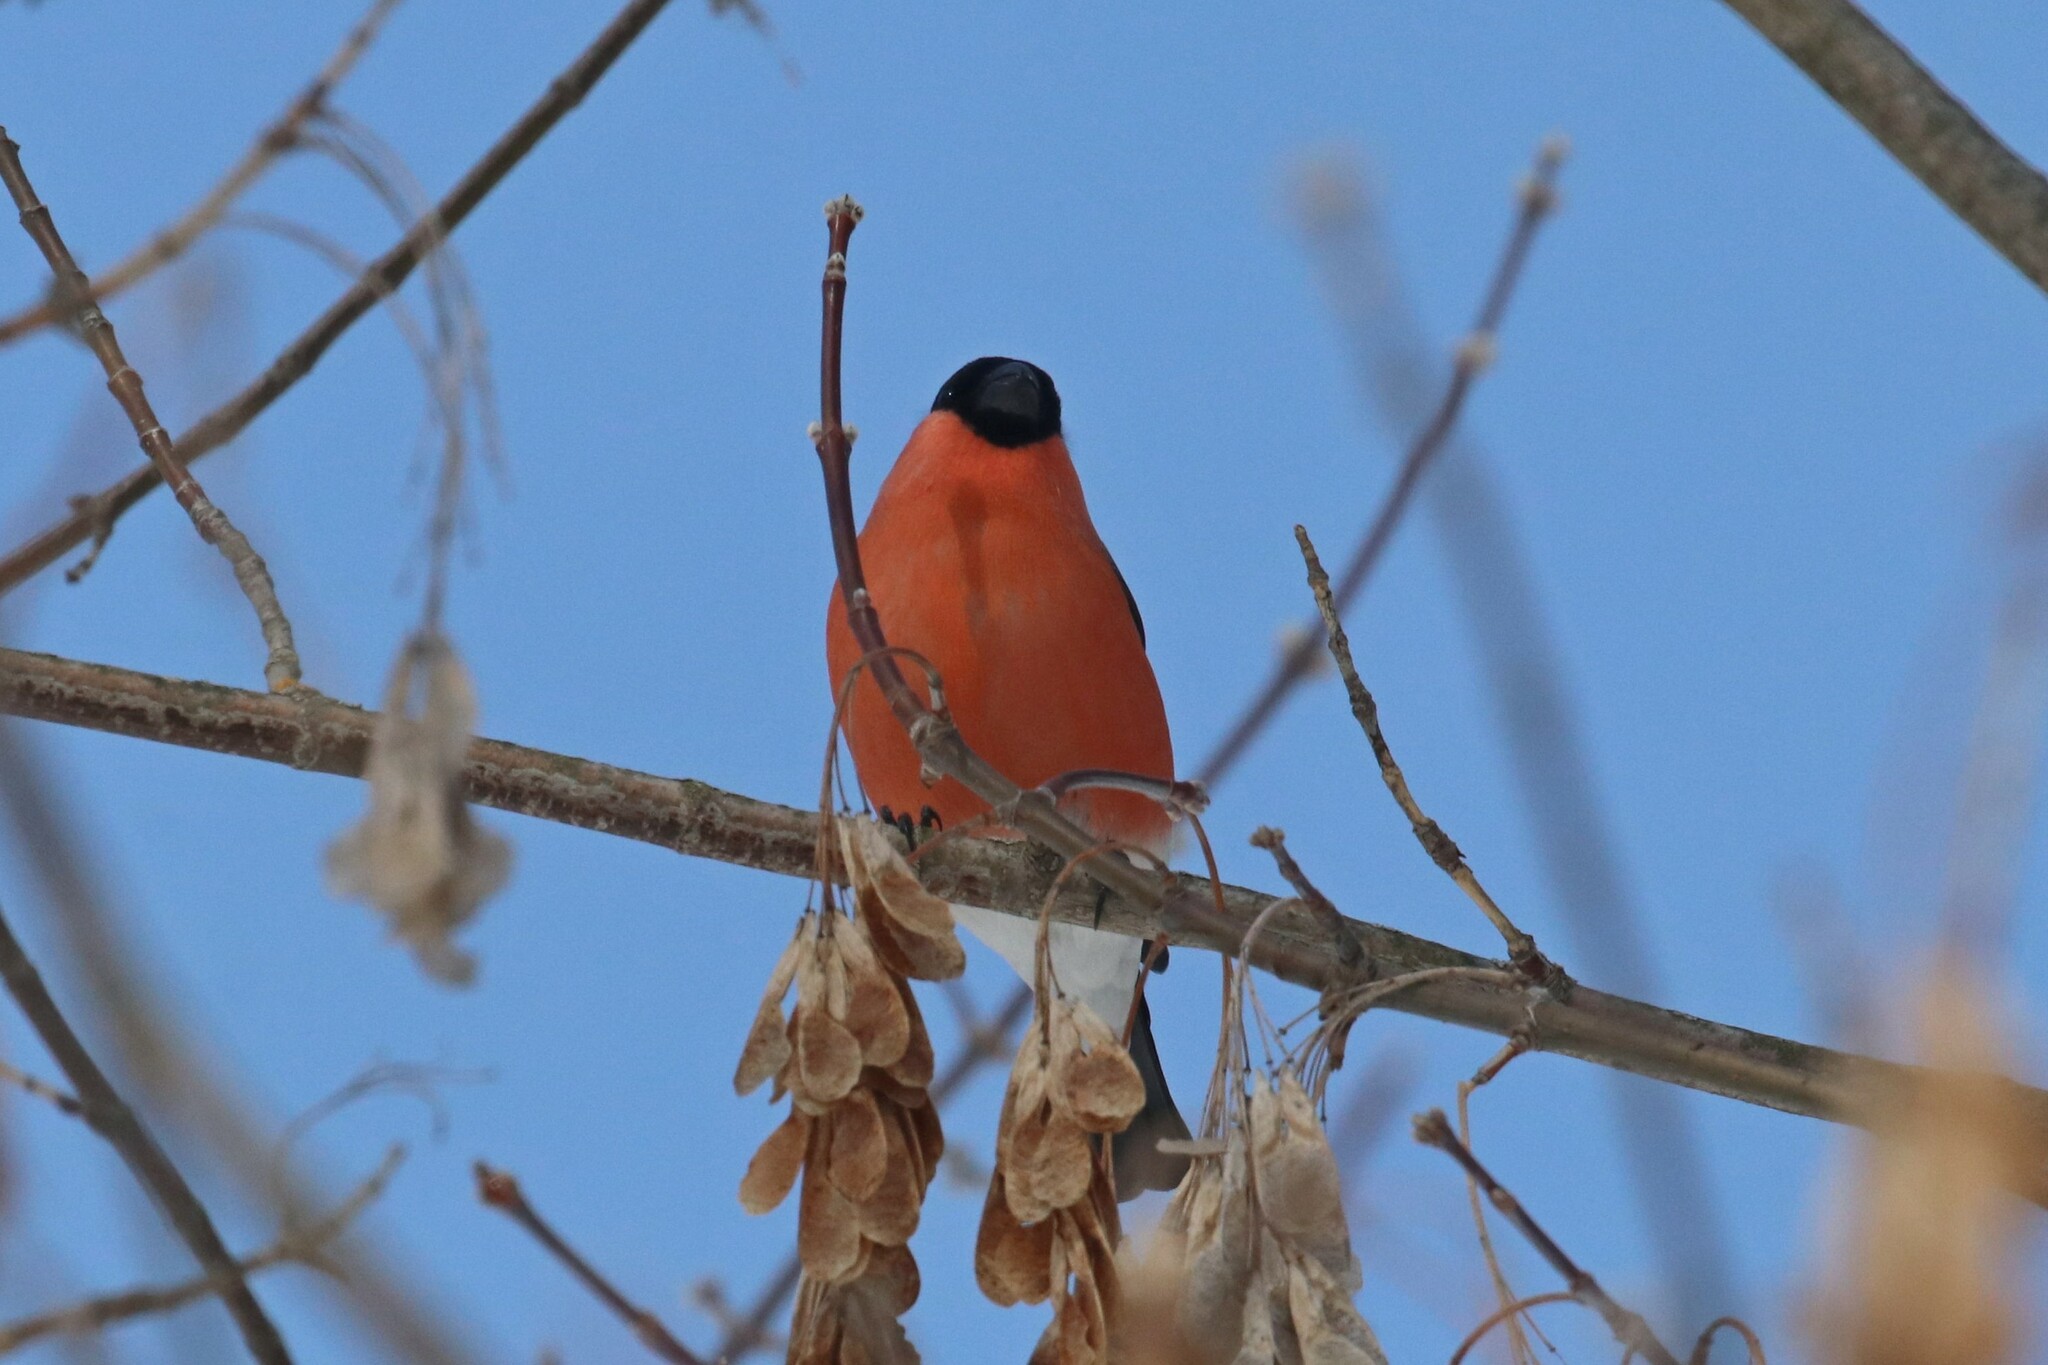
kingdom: Animalia
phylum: Chordata
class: Aves
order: Passeriformes
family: Fringillidae
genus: Pyrrhula
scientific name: Pyrrhula pyrrhula
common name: Eurasian bullfinch
